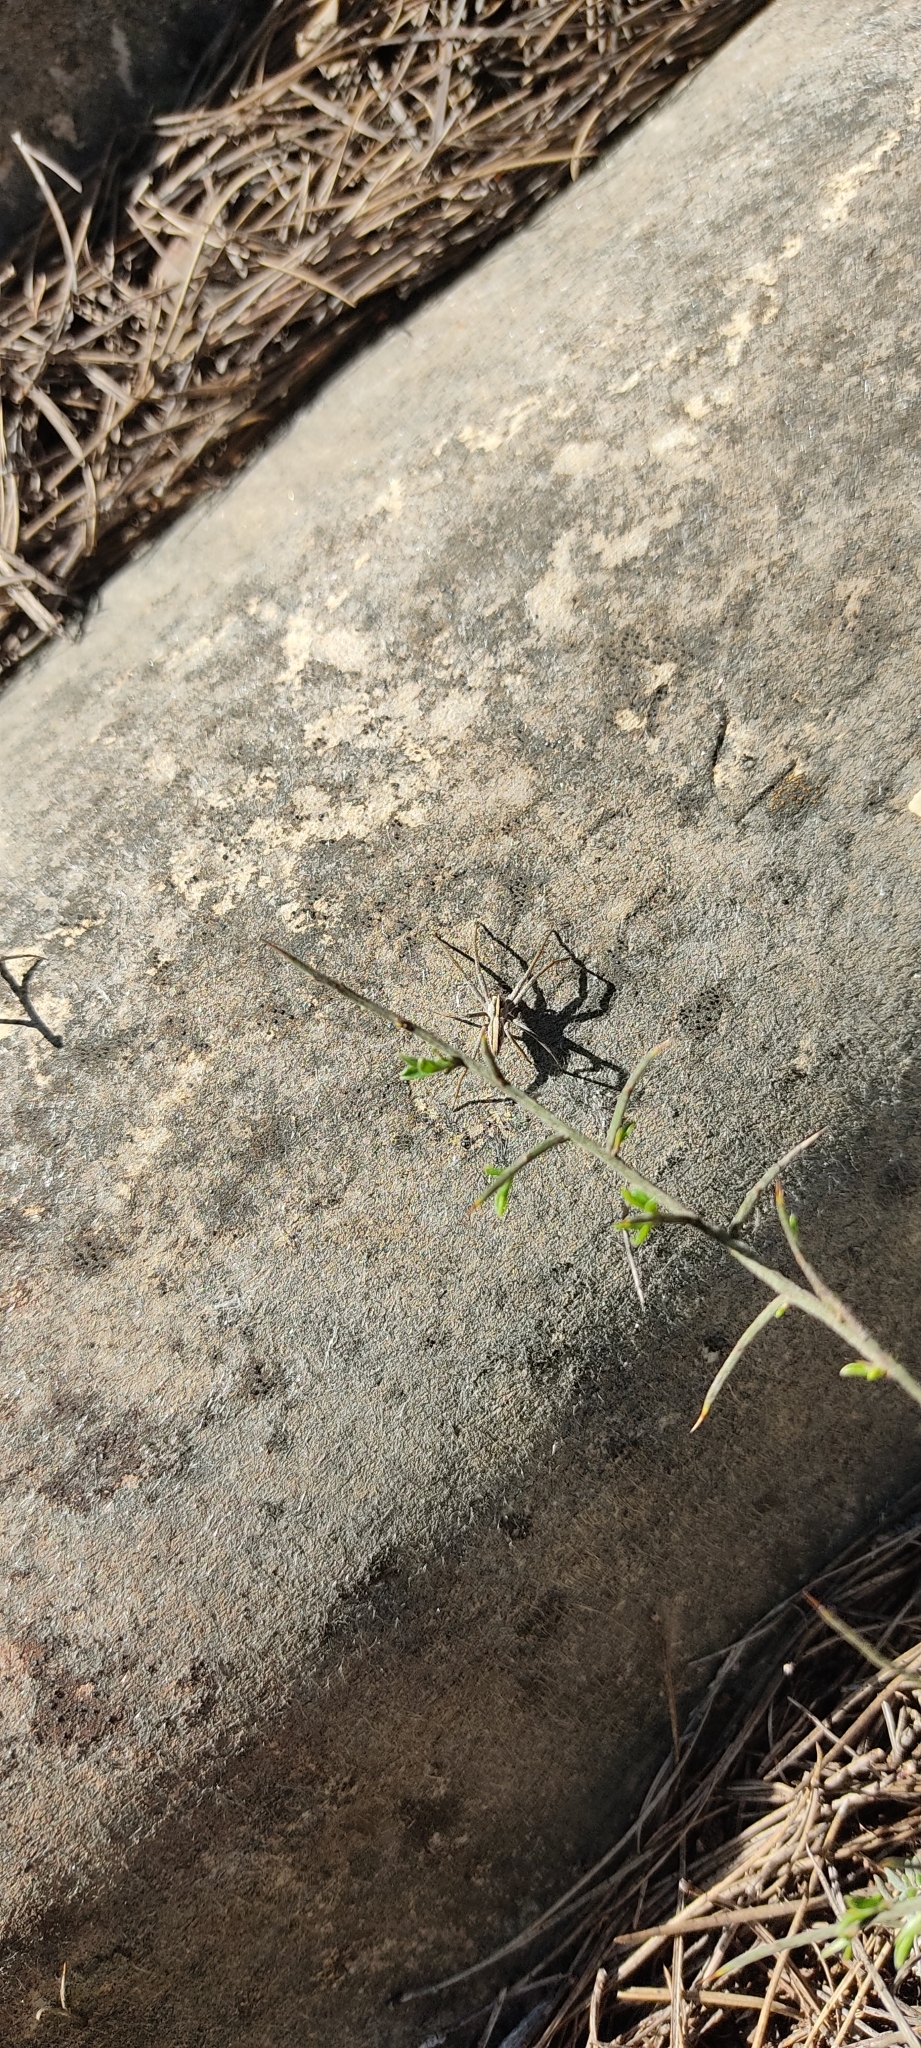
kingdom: Animalia
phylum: Arthropoda
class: Arachnida
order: Araneae
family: Pisauridae
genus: Pisaura
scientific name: Pisaura
